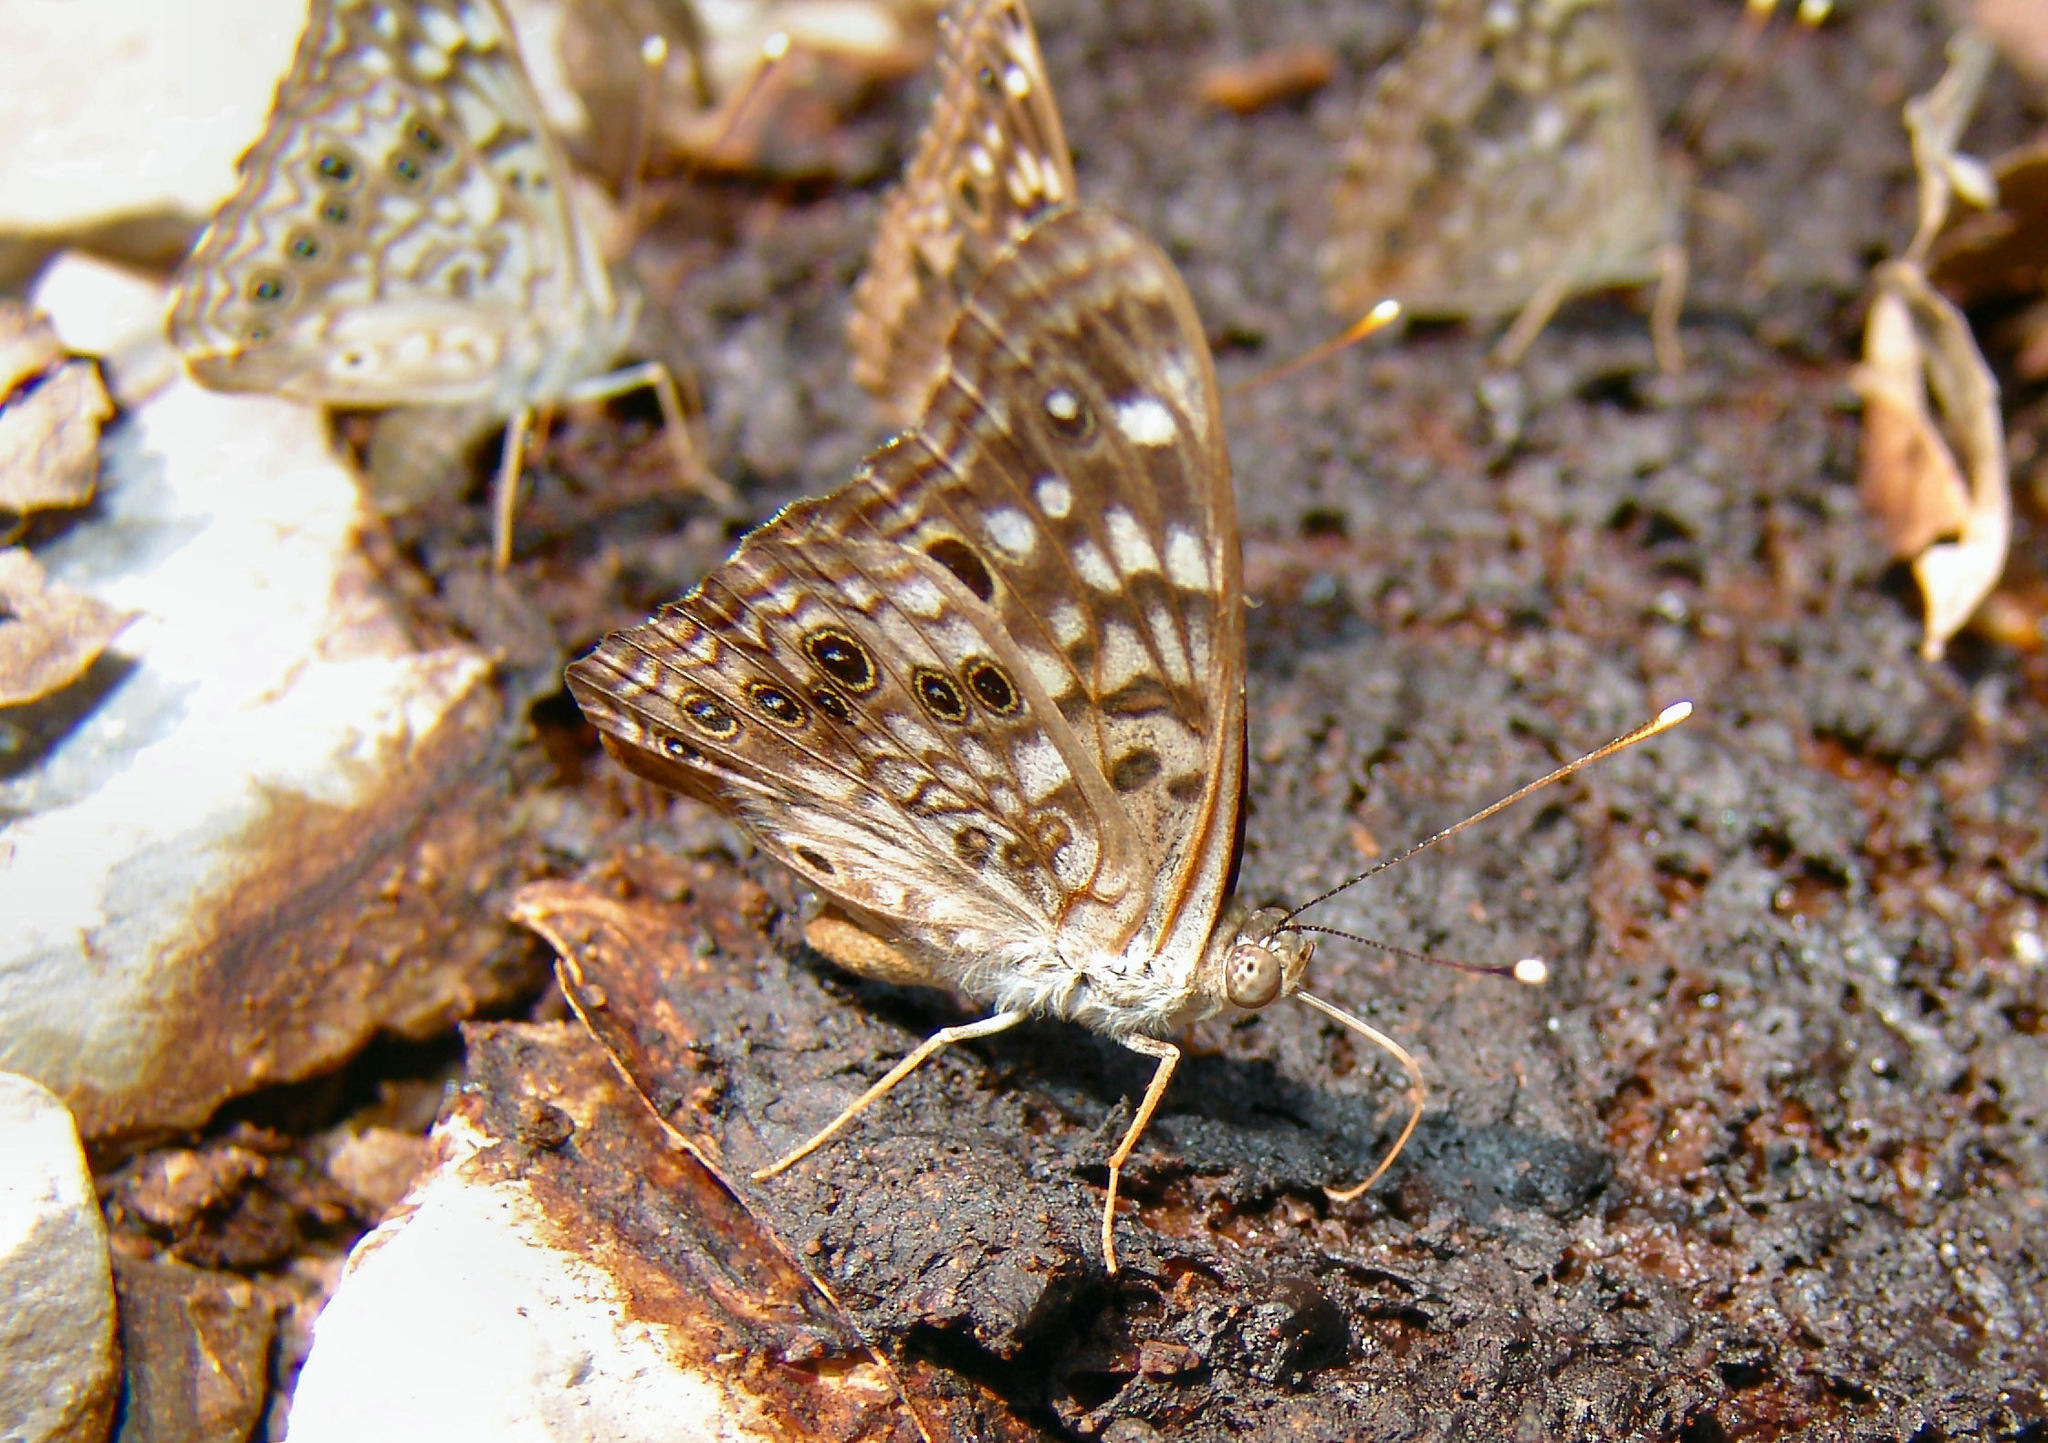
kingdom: Animalia
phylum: Arthropoda
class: Insecta
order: Lepidoptera
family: Nymphalidae
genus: Asterocampa
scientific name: Asterocampa celtis
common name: Hackberry emperor
